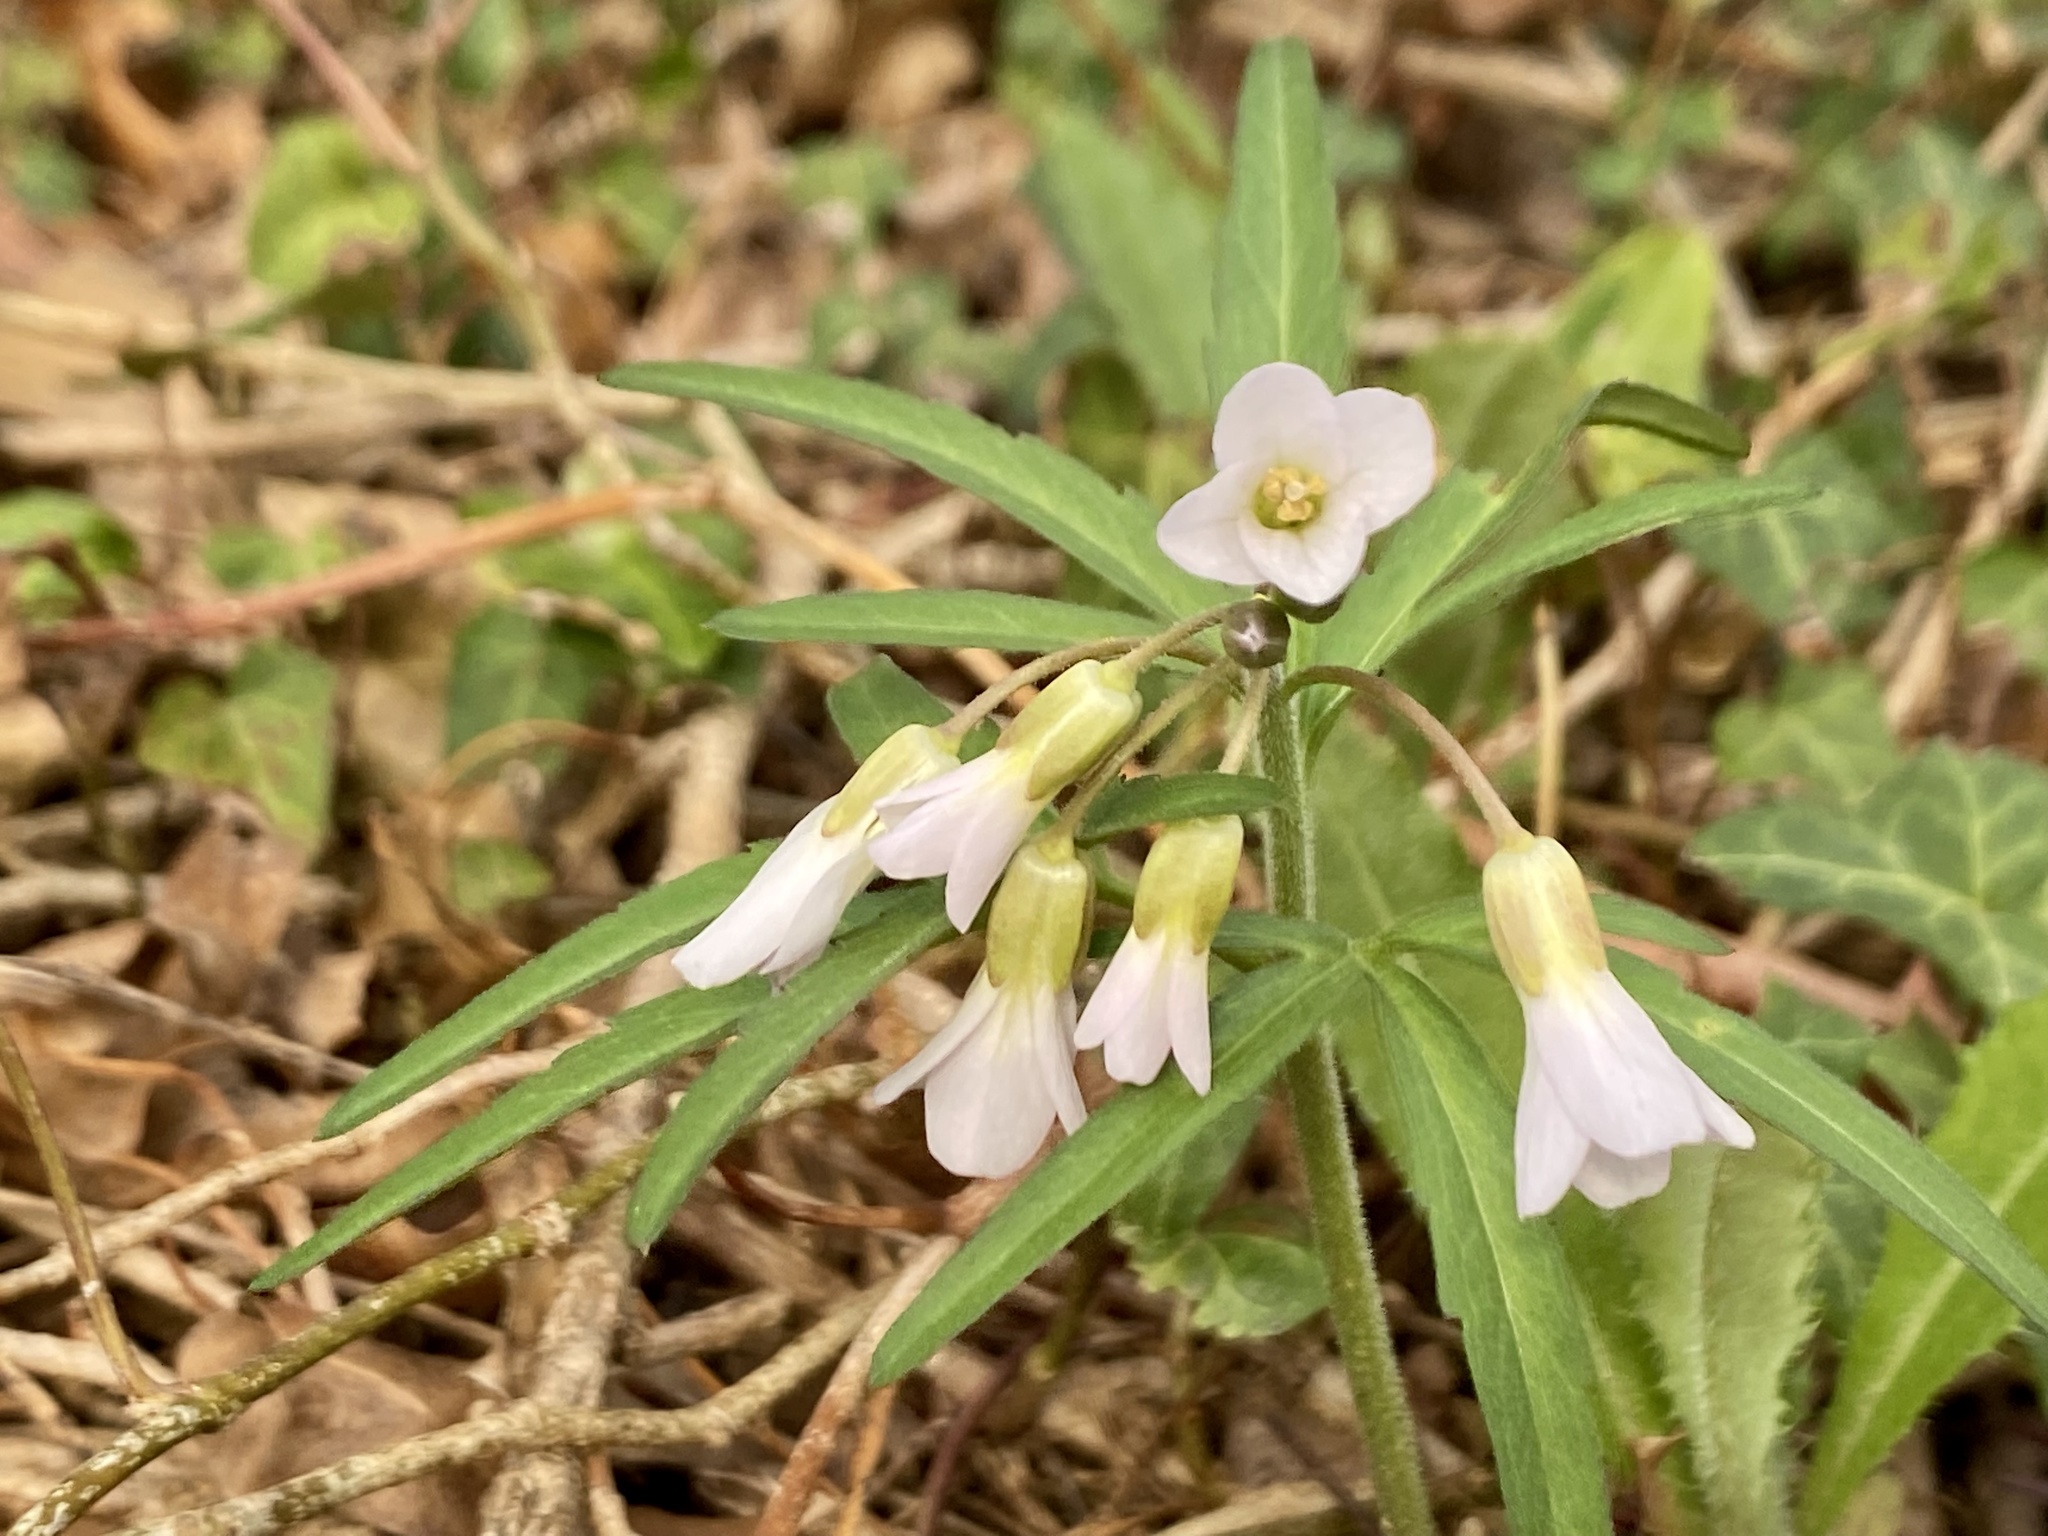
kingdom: Plantae
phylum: Tracheophyta
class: Magnoliopsida
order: Brassicales
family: Brassicaceae
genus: Cardamine
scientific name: Cardamine concatenata
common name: Cut-leaf toothcup
